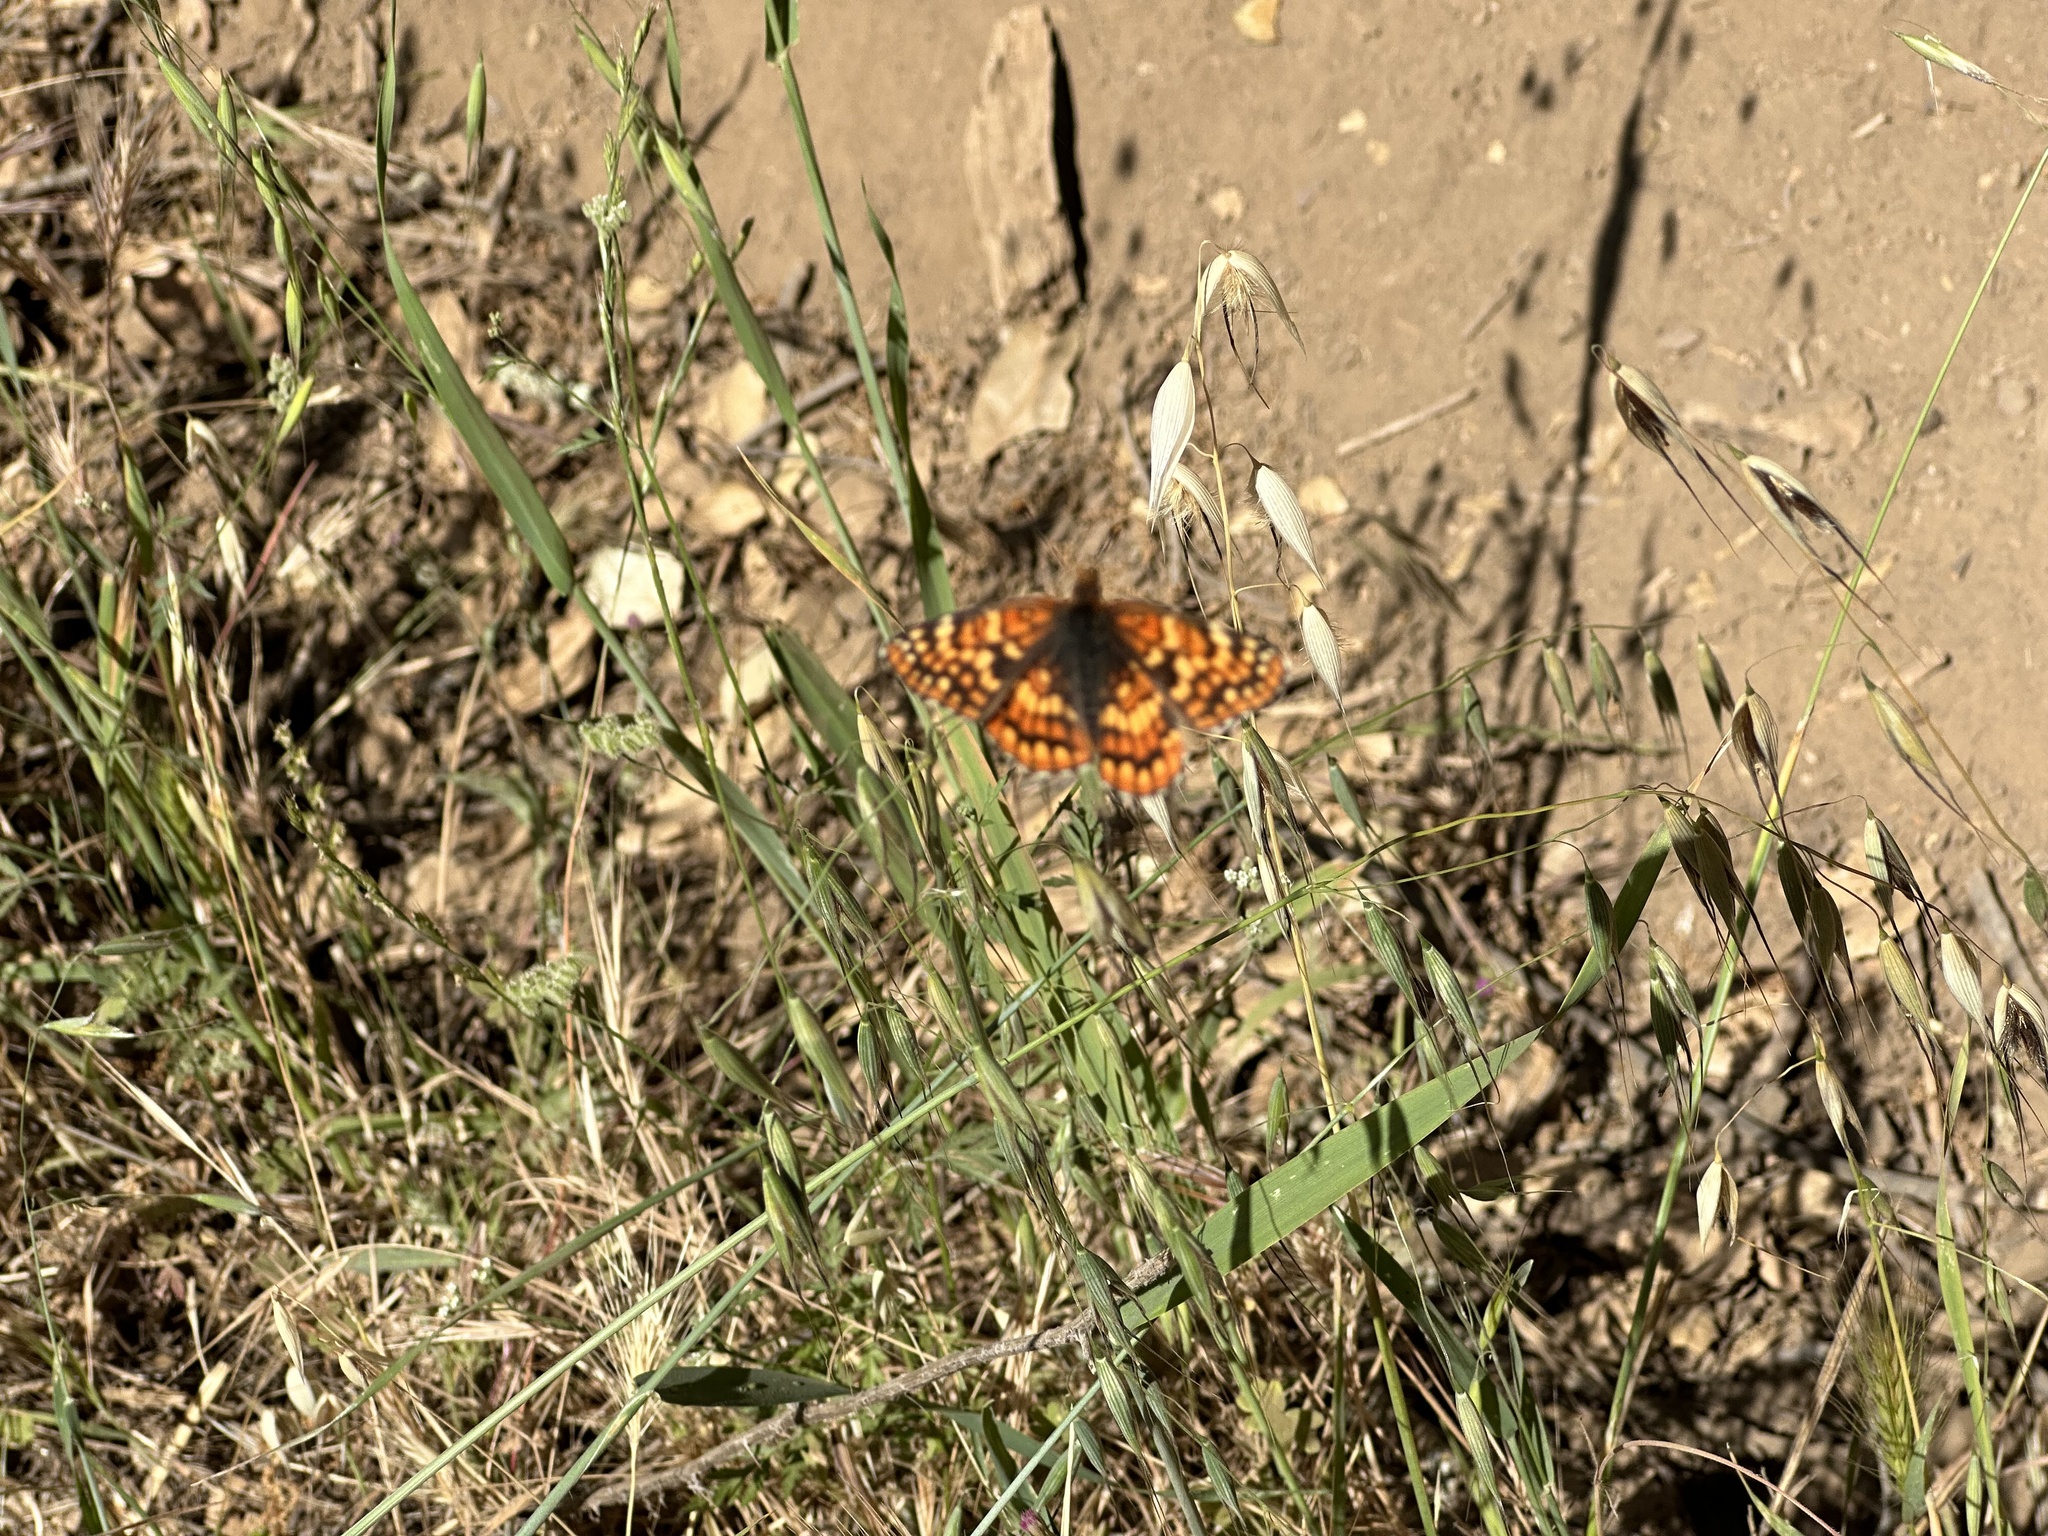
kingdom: Animalia
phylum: Arthropoda
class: Insecta
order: Lepidoptera
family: Nymphalidae
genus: Chlosyne
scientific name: Chlosyne palla
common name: Northern checkerspot
